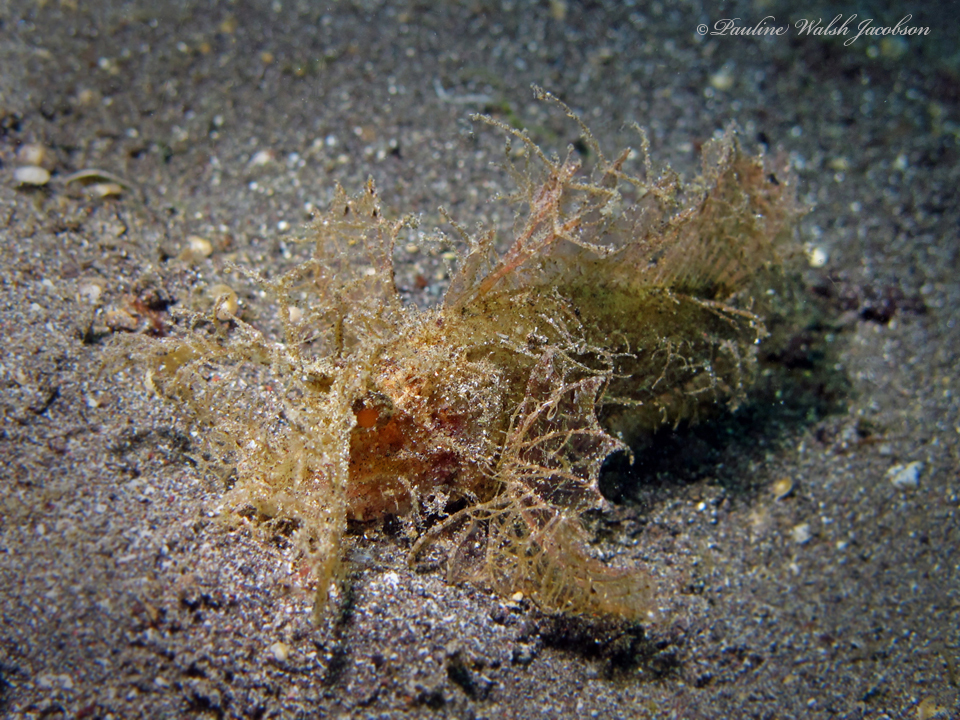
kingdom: Animalia
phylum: Chordata
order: Scorpaeniformes
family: Scorpaenidae
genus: Pteroidichthys
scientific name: Pteroidichthys amboinensis
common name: Ambon scorpionfish
